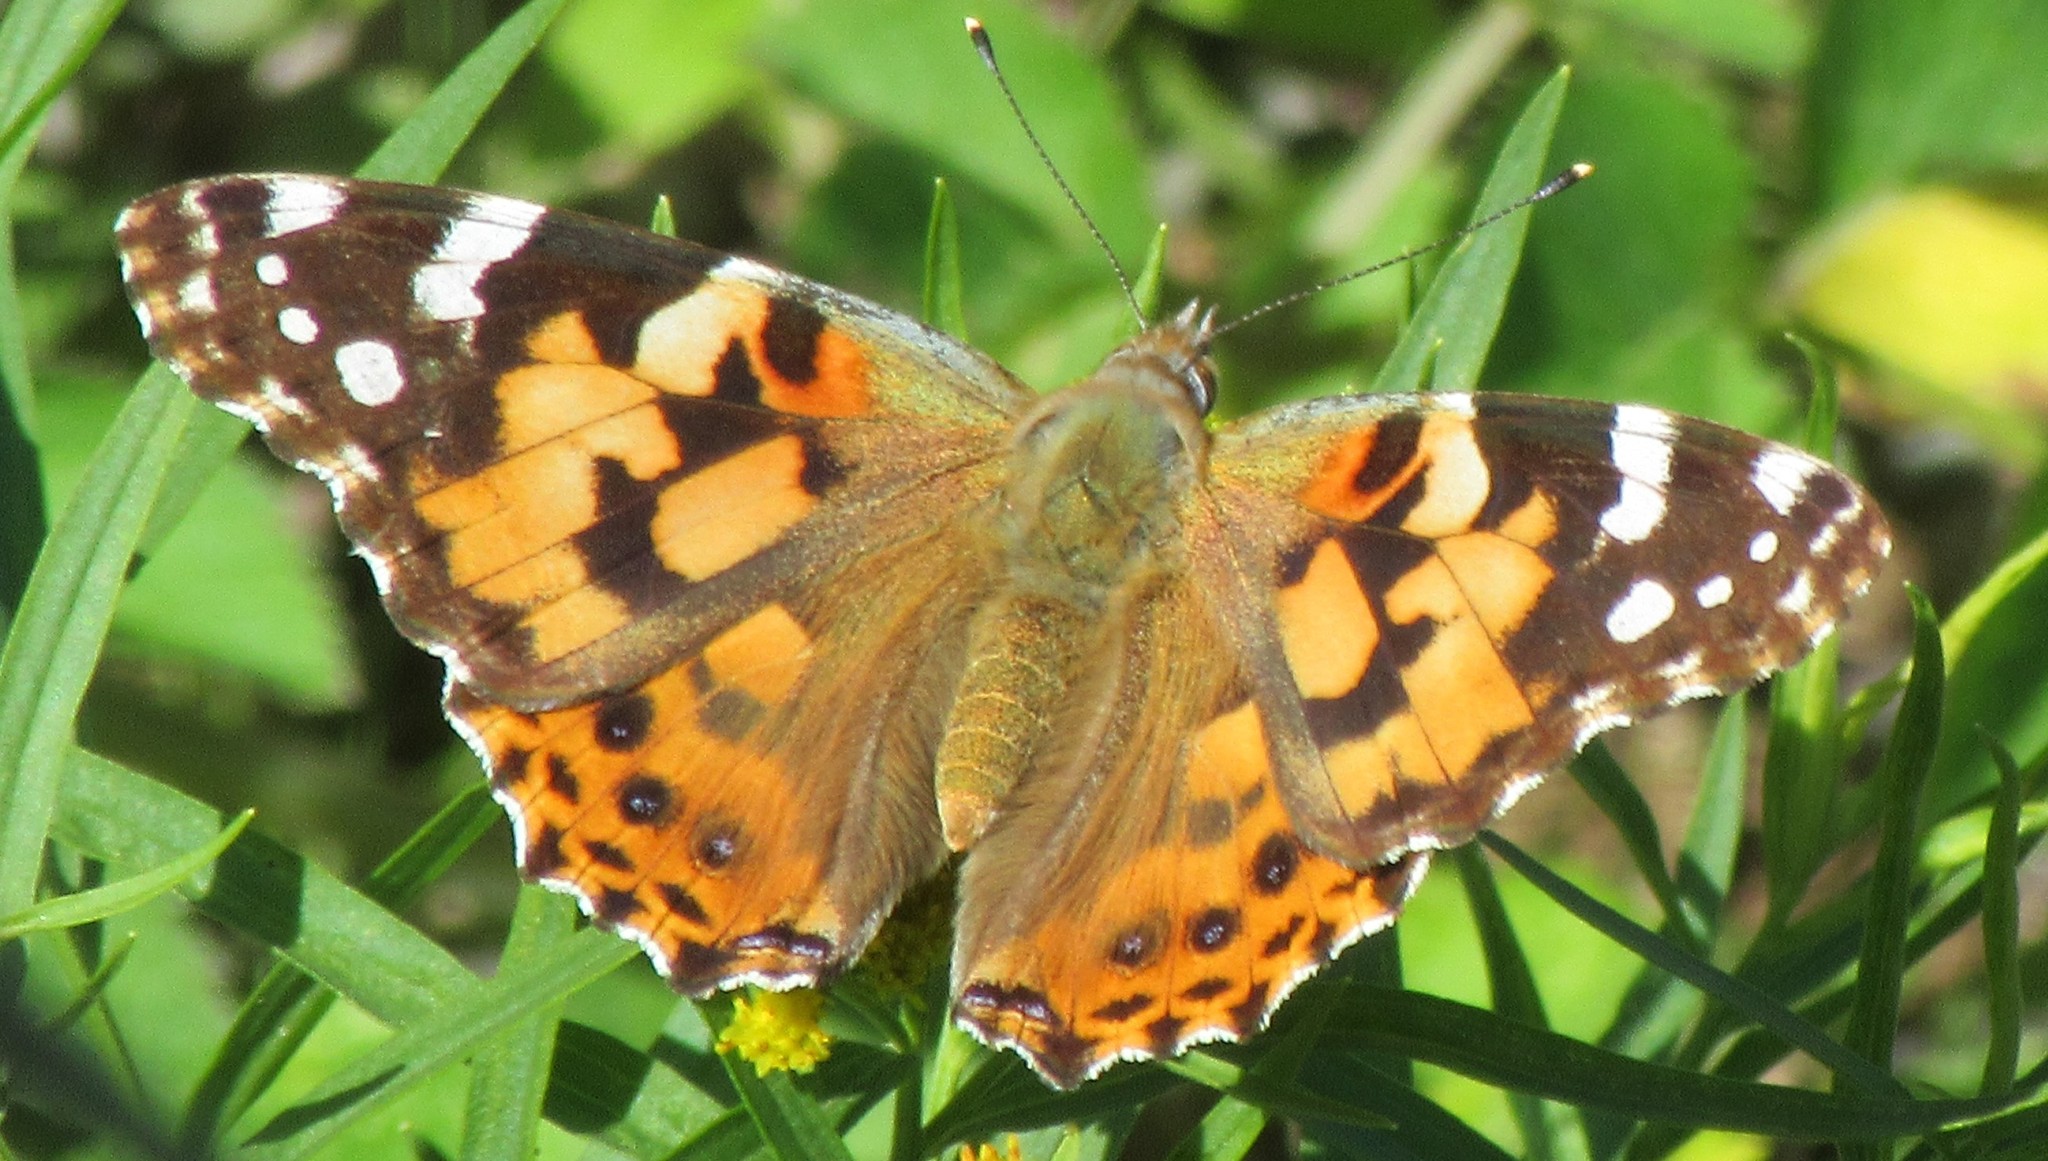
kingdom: Animalia
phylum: Arthropoda
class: Insecta
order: Lepidoptera
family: Nymphalidae
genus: Vanessa
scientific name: Vanessa cardui
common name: Painted lady
